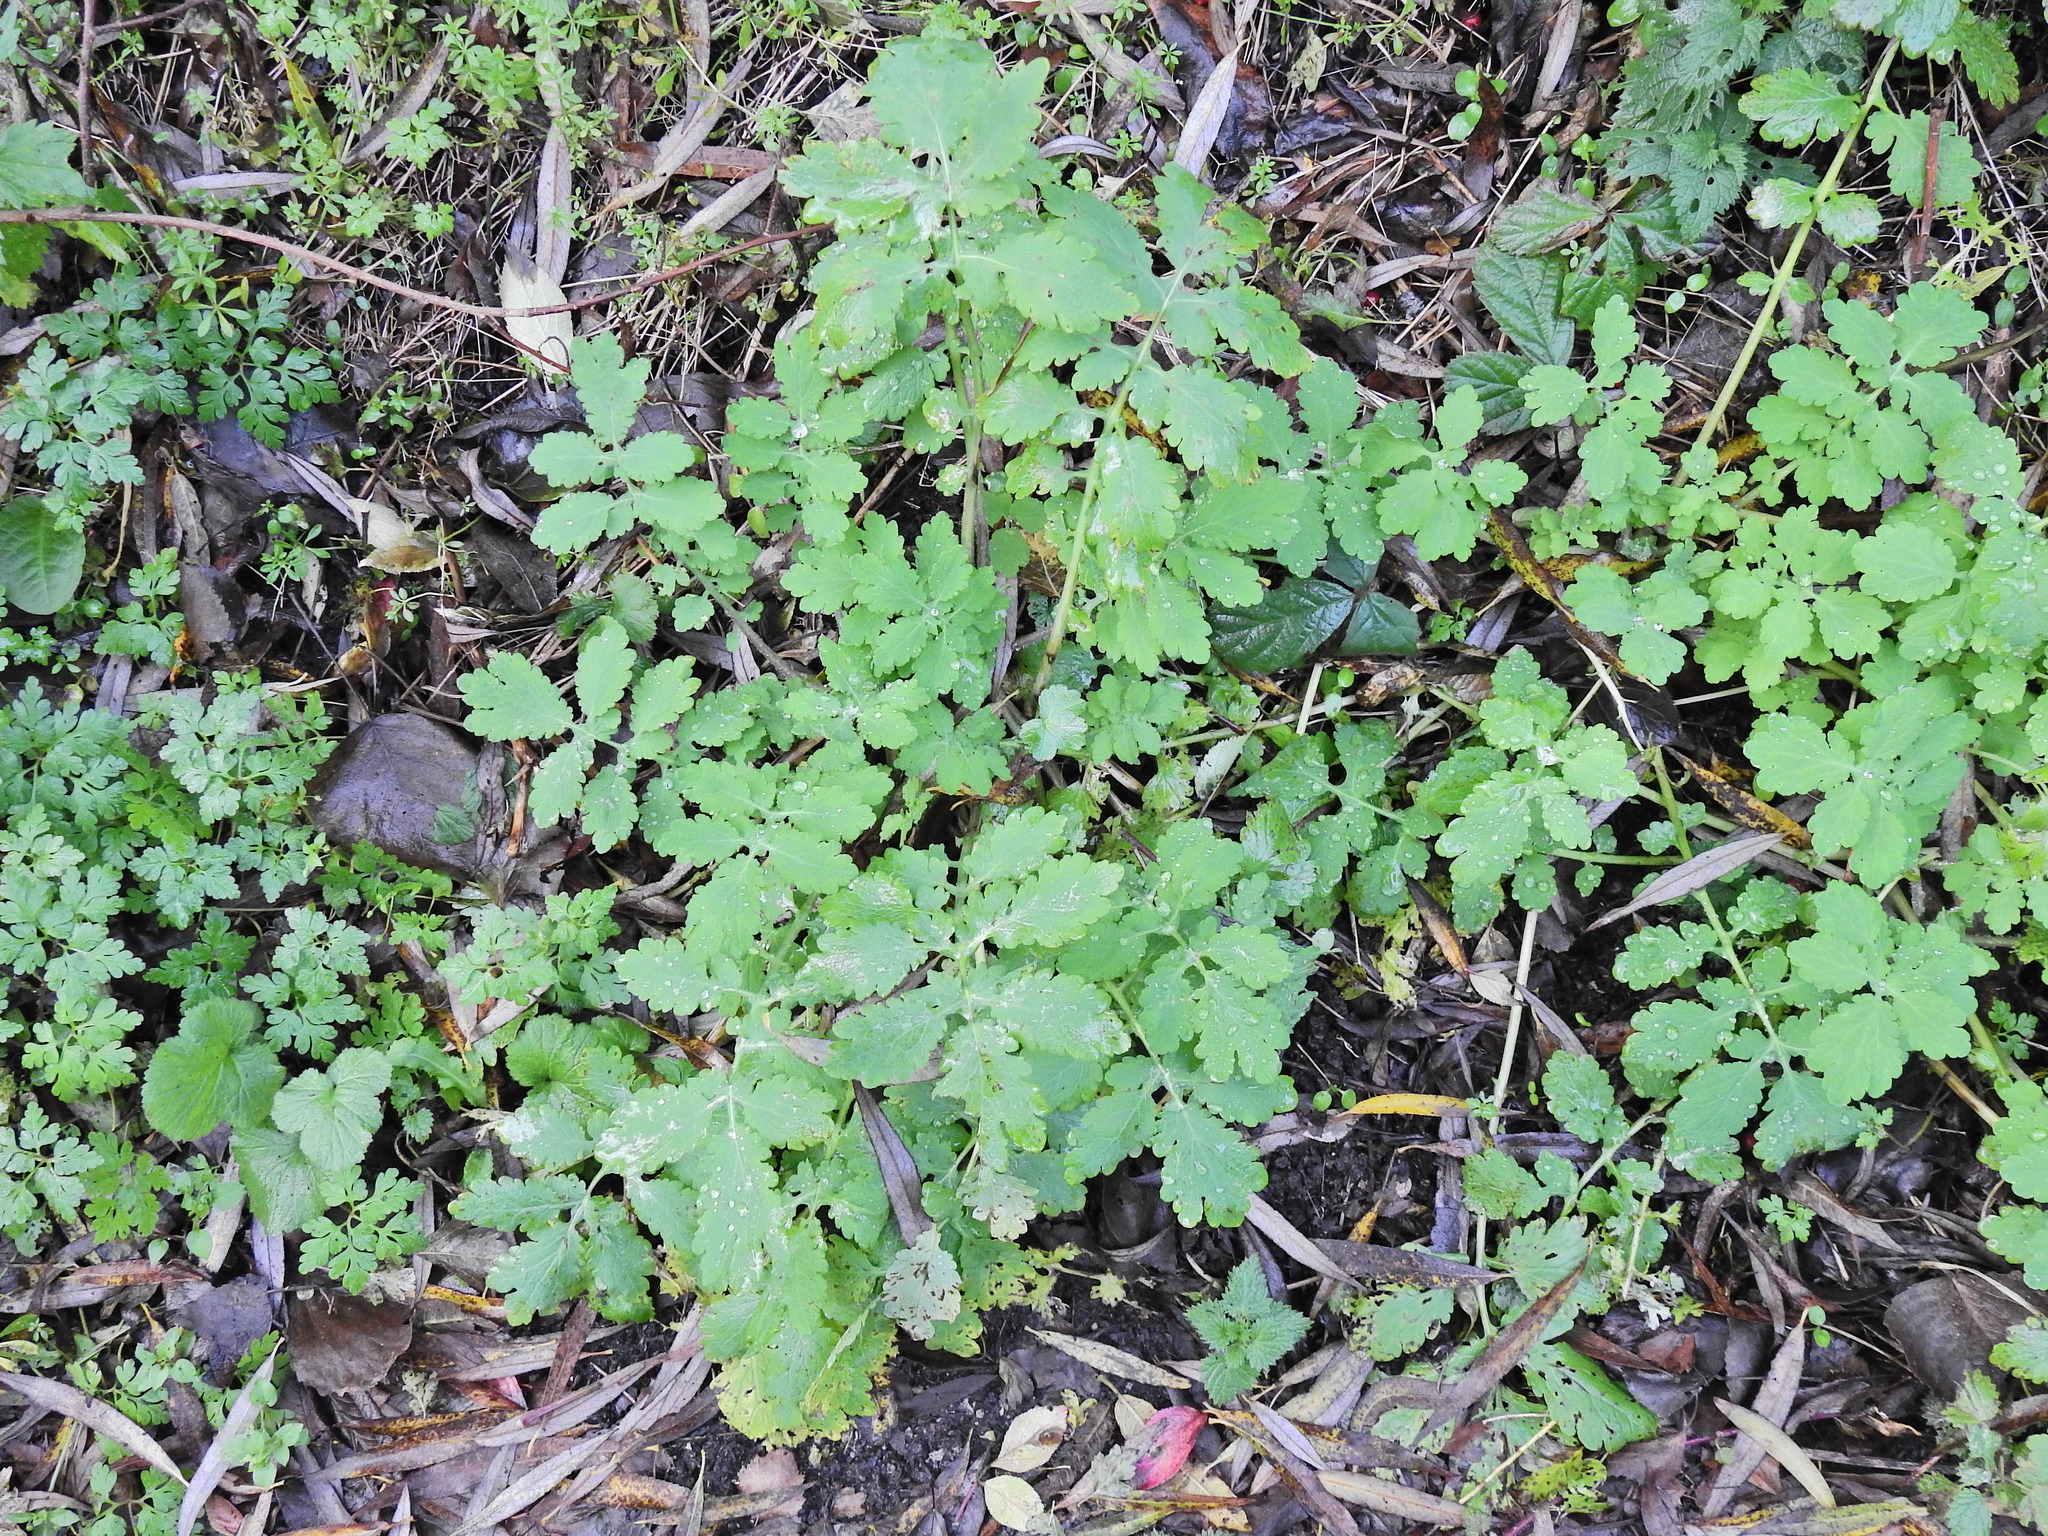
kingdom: Plantae
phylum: Tracheophyta
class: Magnoliopsida
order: Ranunculales
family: Papaveraceae
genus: Chelidonium
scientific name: Chelidonium majus
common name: Greater celandine
